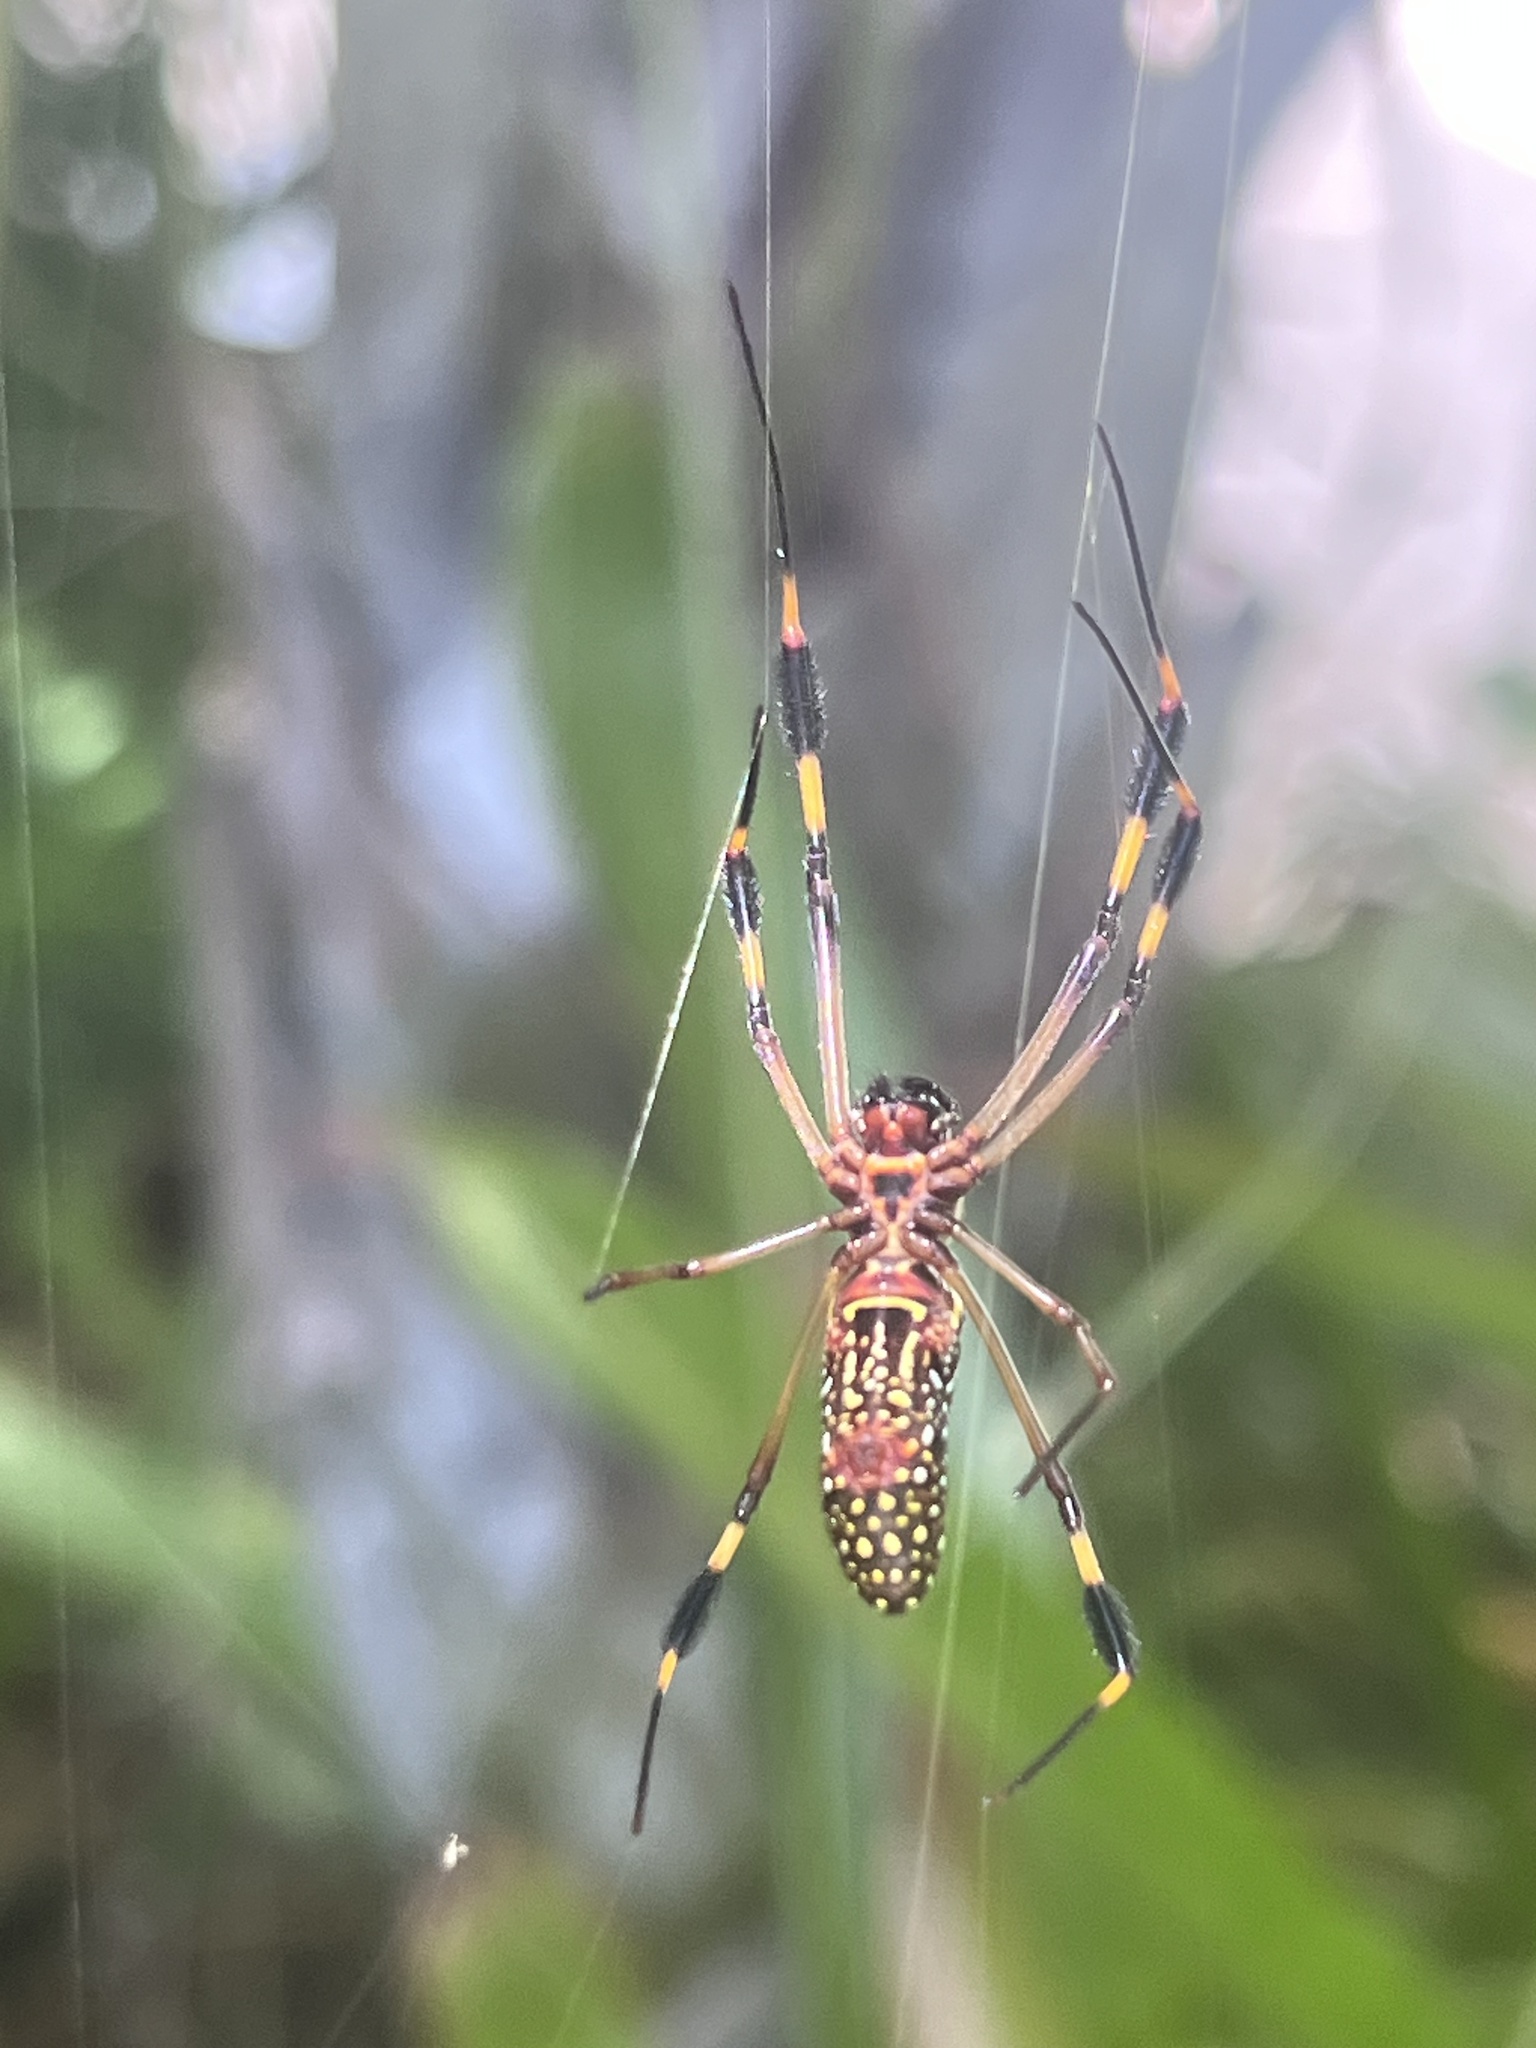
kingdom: Animalia
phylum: Arthropoda
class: Arachnida
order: Araneae
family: Araneidae
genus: Trichonephila
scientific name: Trichonephila clavipes
